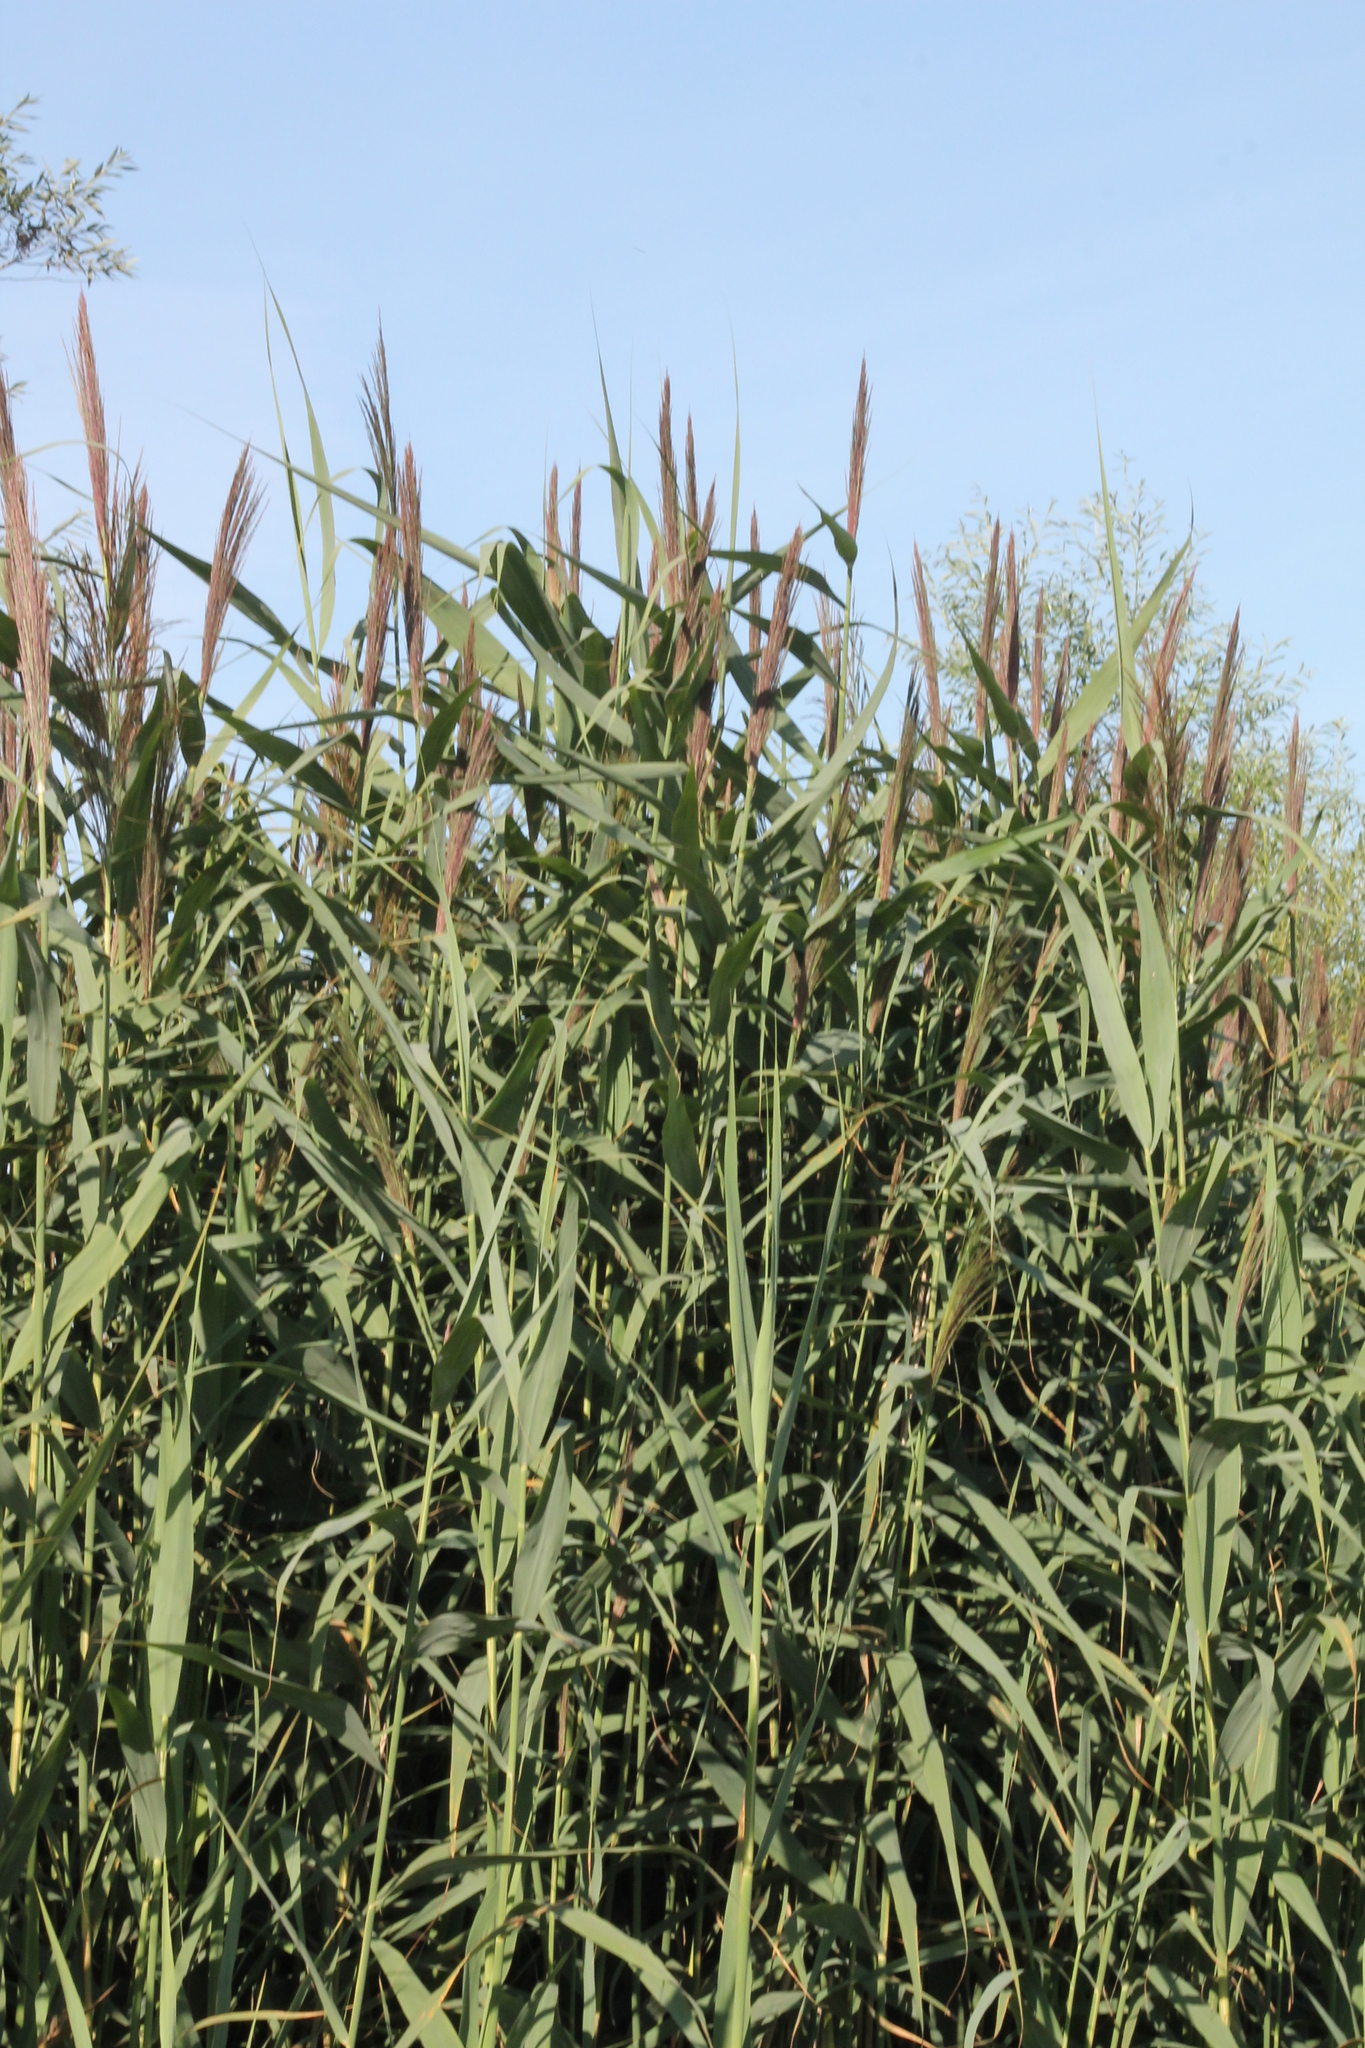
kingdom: Plantae
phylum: Tracheophyta
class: Liliopsida
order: Poales
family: Poaceae
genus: Phragmites
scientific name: Phragmites australis
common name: Common reed
